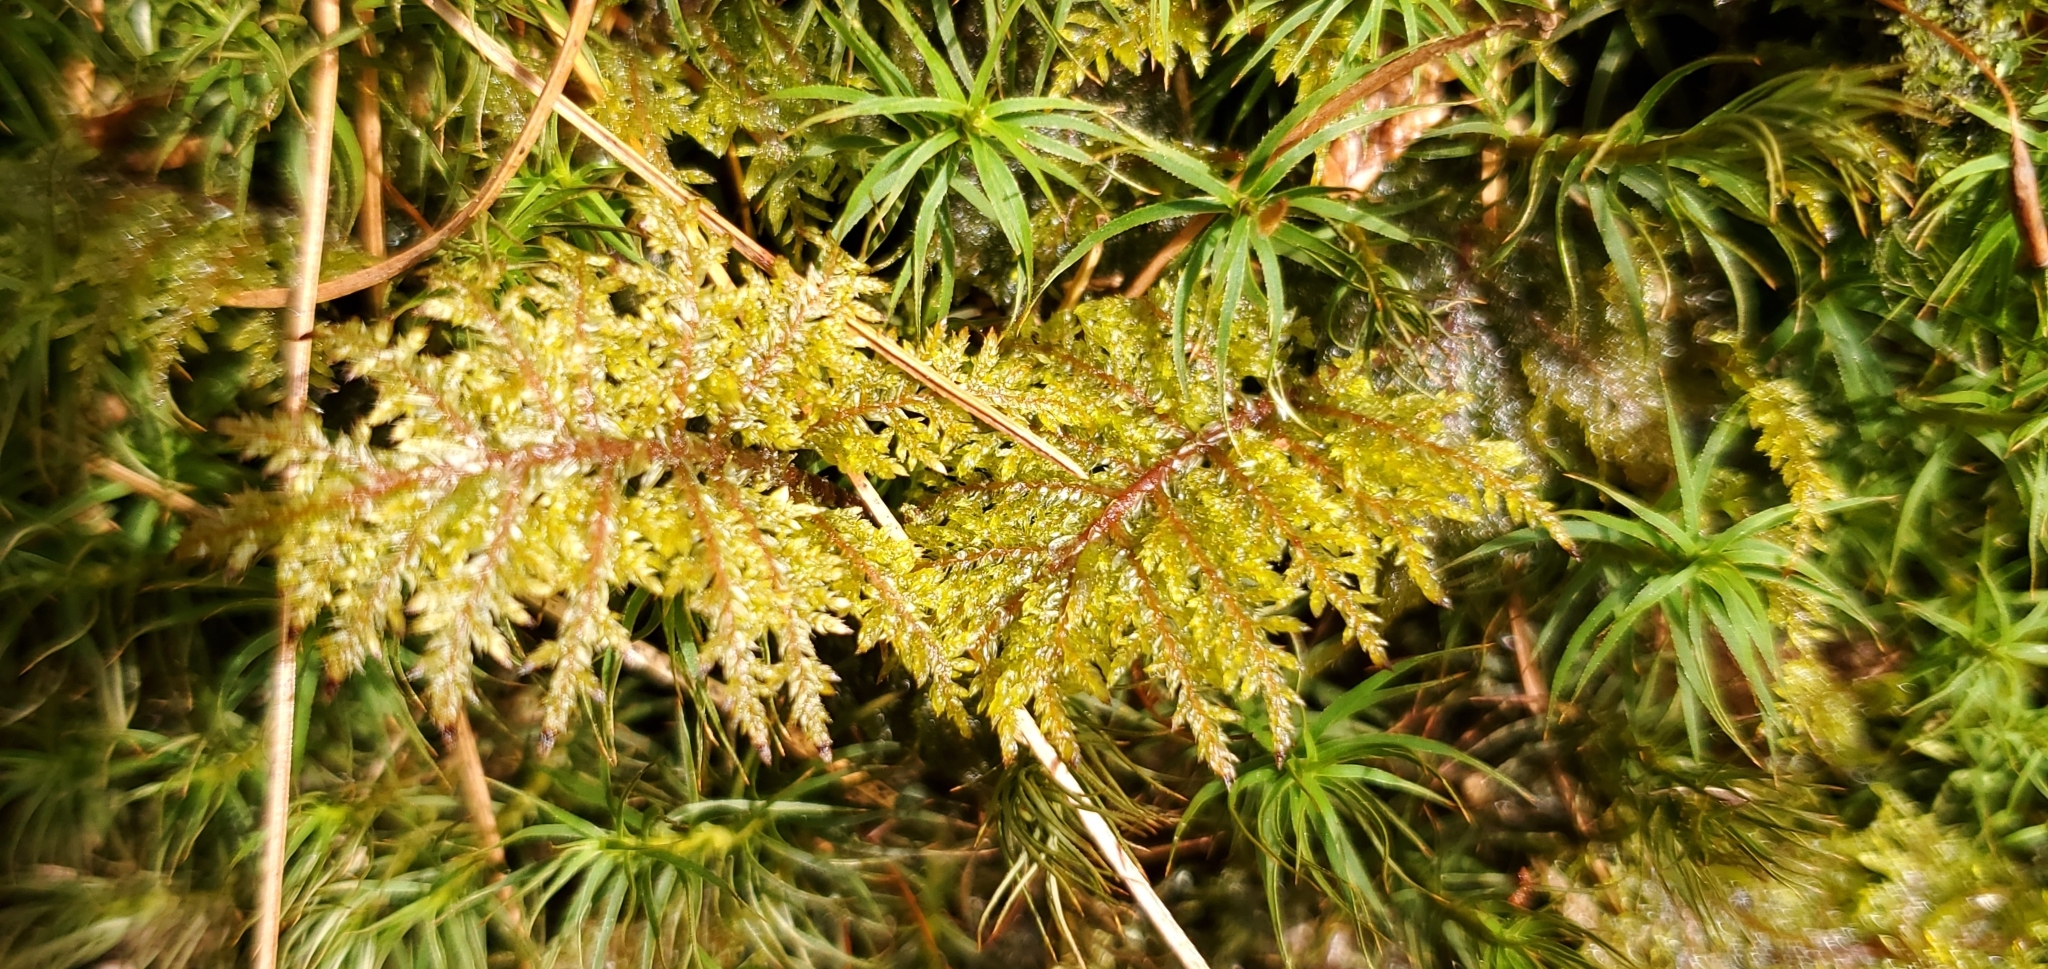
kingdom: Plantae
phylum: Bryophyta
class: Bryopsida
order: Hypnales
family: Hylocomiaceae
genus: Hylocomium
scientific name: Hylocomium splendens
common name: Stairstep moss
